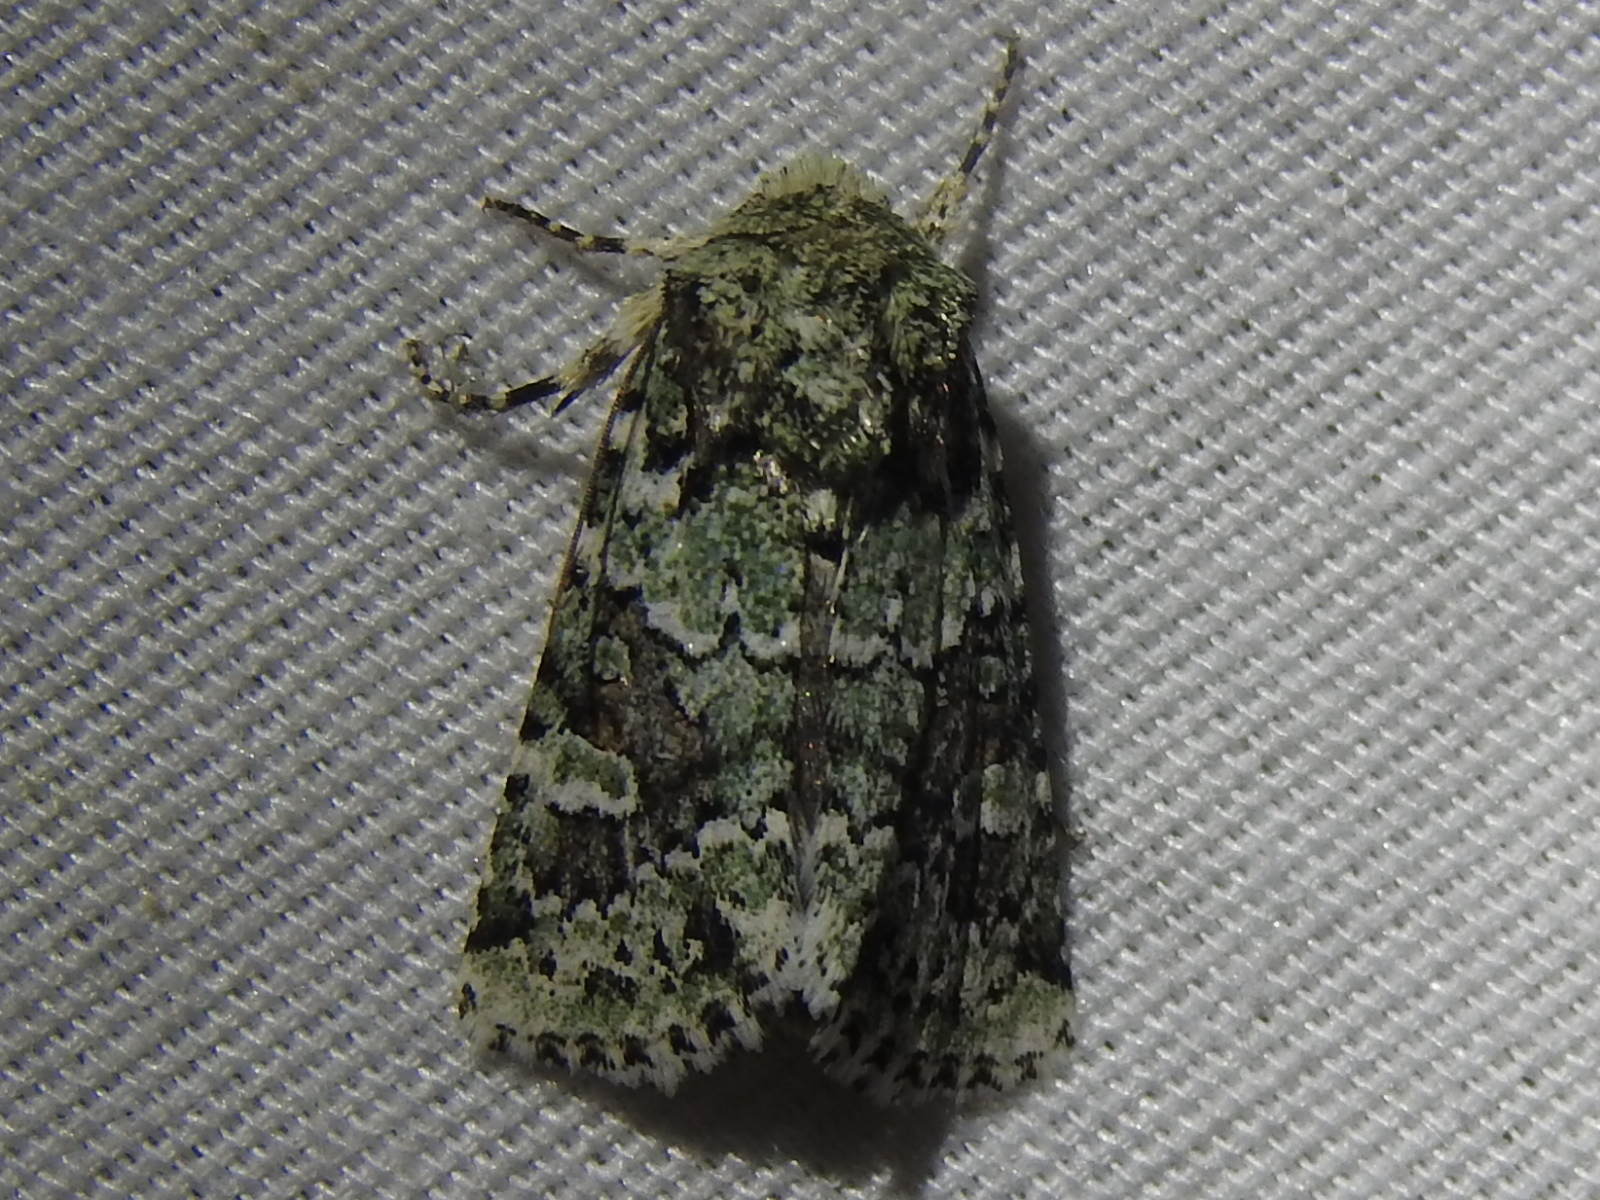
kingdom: Animalia
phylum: Arthropoda
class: Insecta
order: Lepidoptera
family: Noctuidae
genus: Lacinipolia
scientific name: Lacinipolia laudabilis
